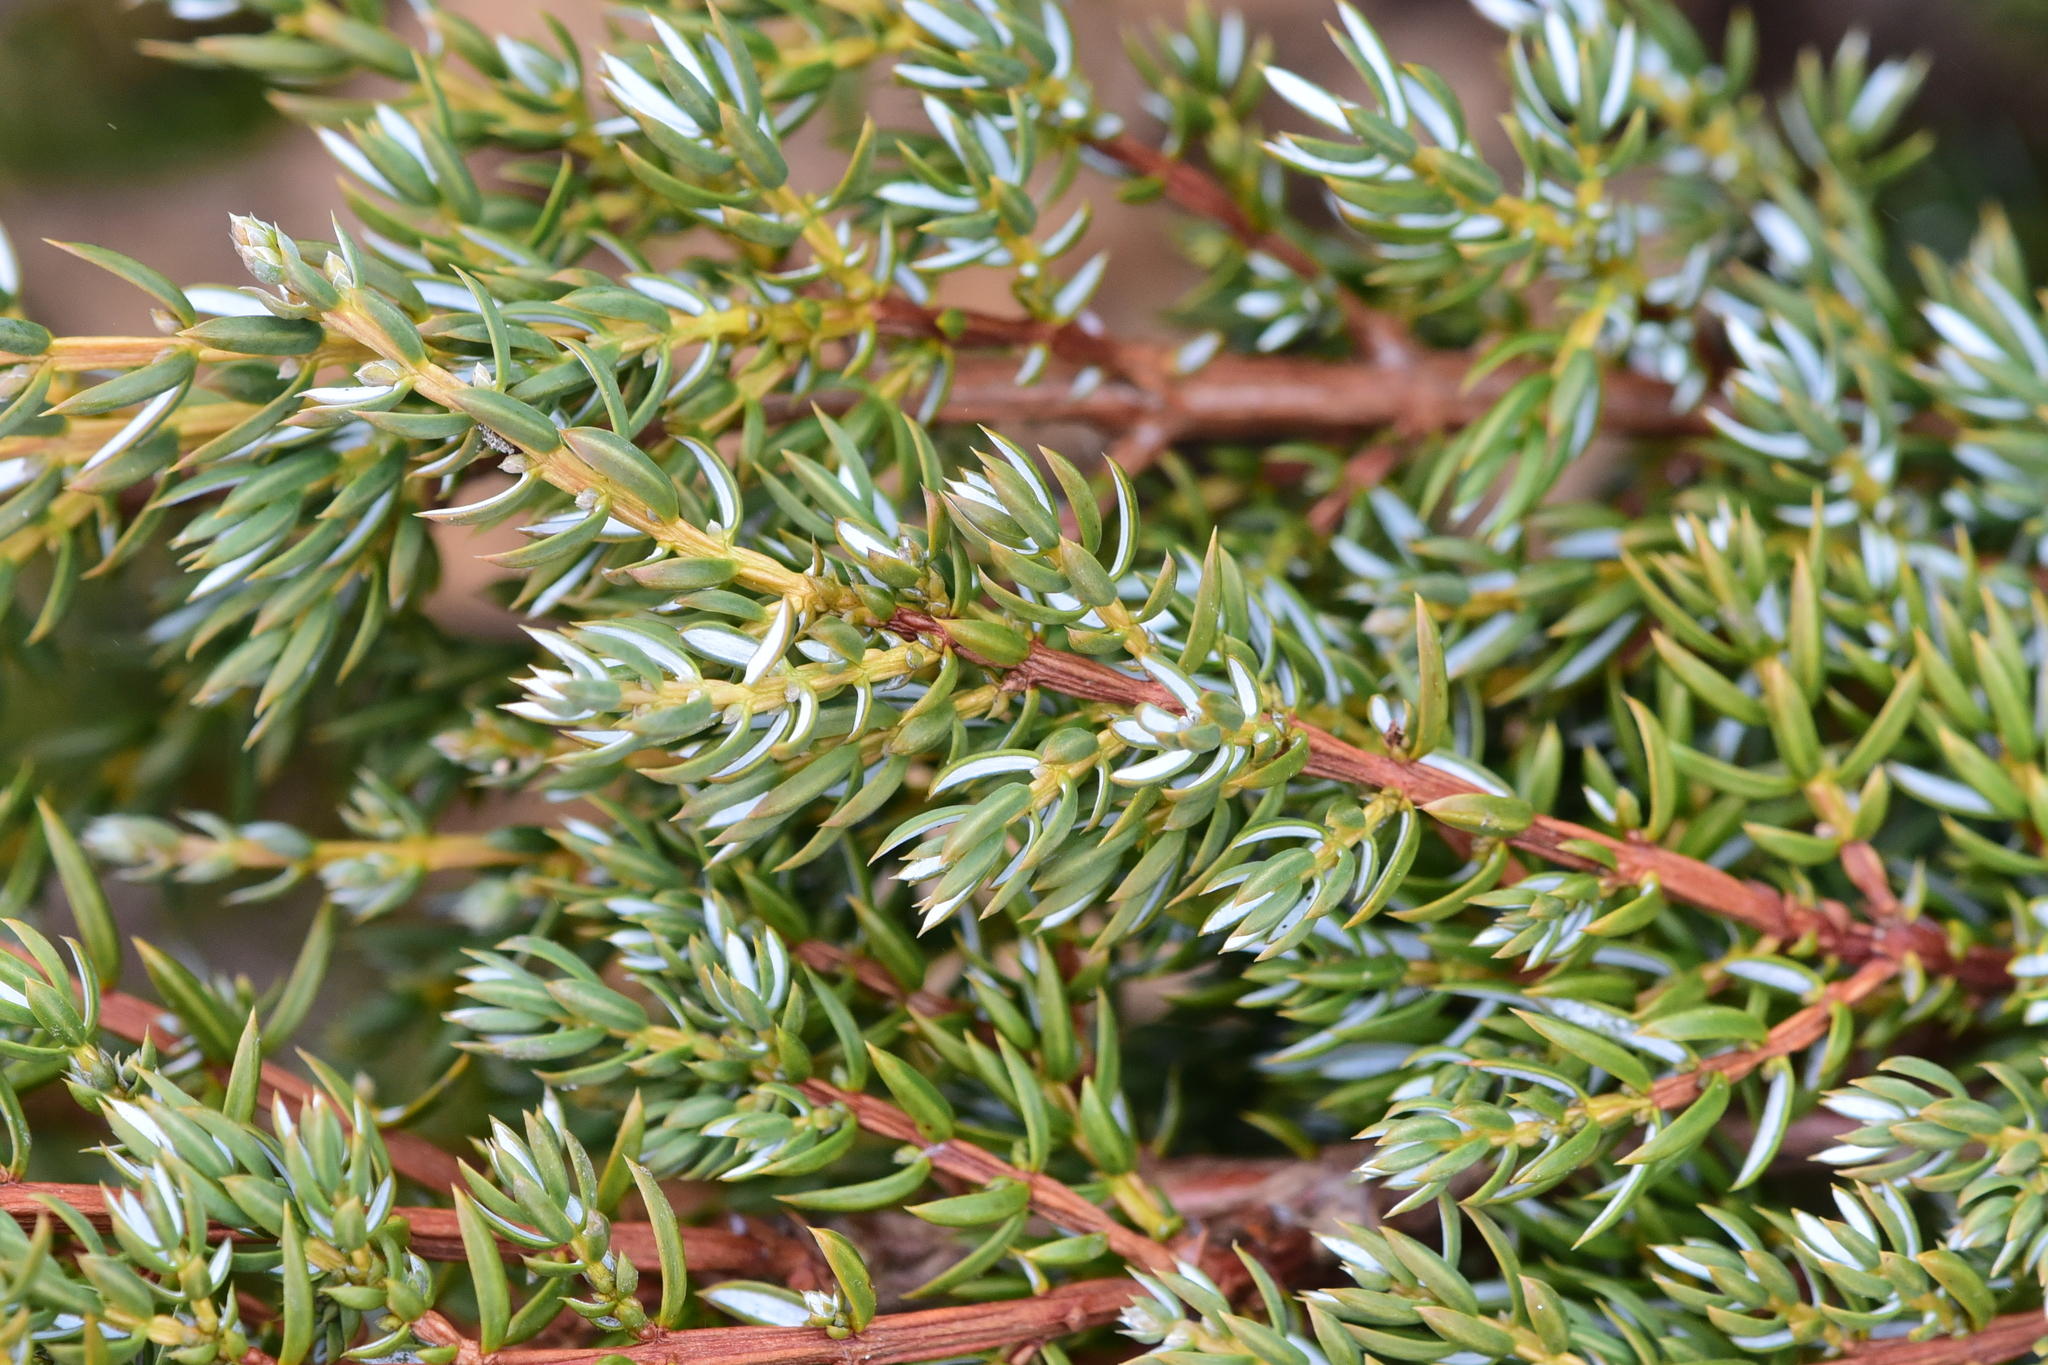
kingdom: Plantae
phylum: Tracheophyta
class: Pinopsida
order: Pinales
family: Cupressaceae
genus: Juniperus
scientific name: Juniperus communis
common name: Common juniper
